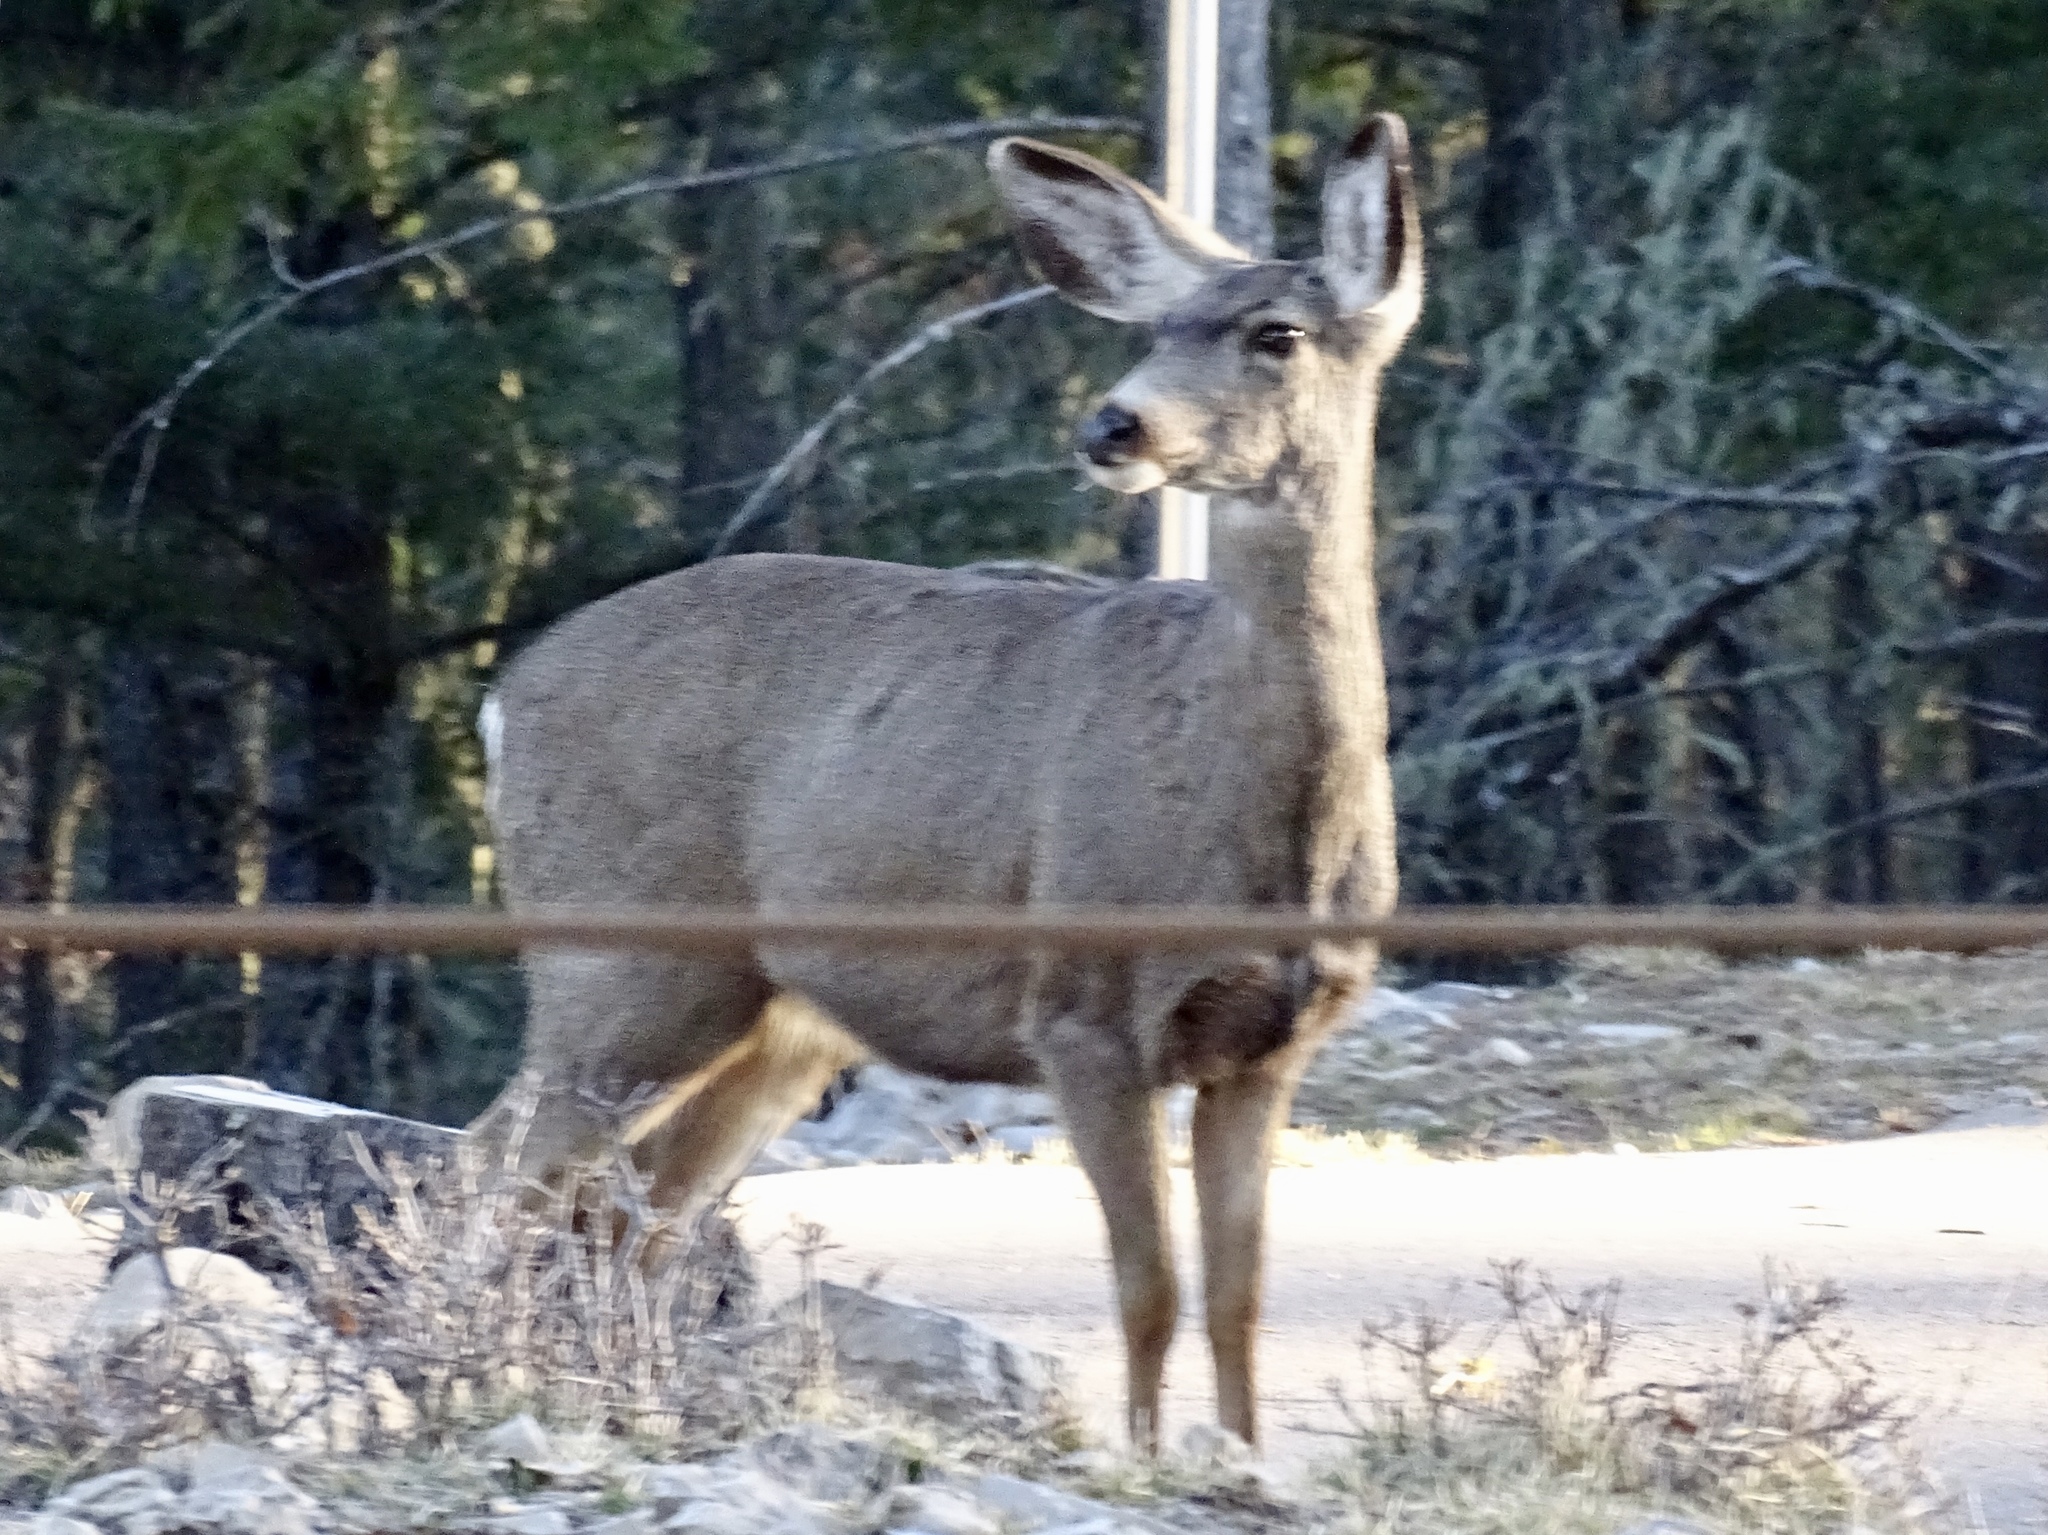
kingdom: Animalia
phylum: Chordata
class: Mammalia
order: Artiodactyla
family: Cervidae
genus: Odocoileus
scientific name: Odocoileus hemionus
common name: Mule deer
